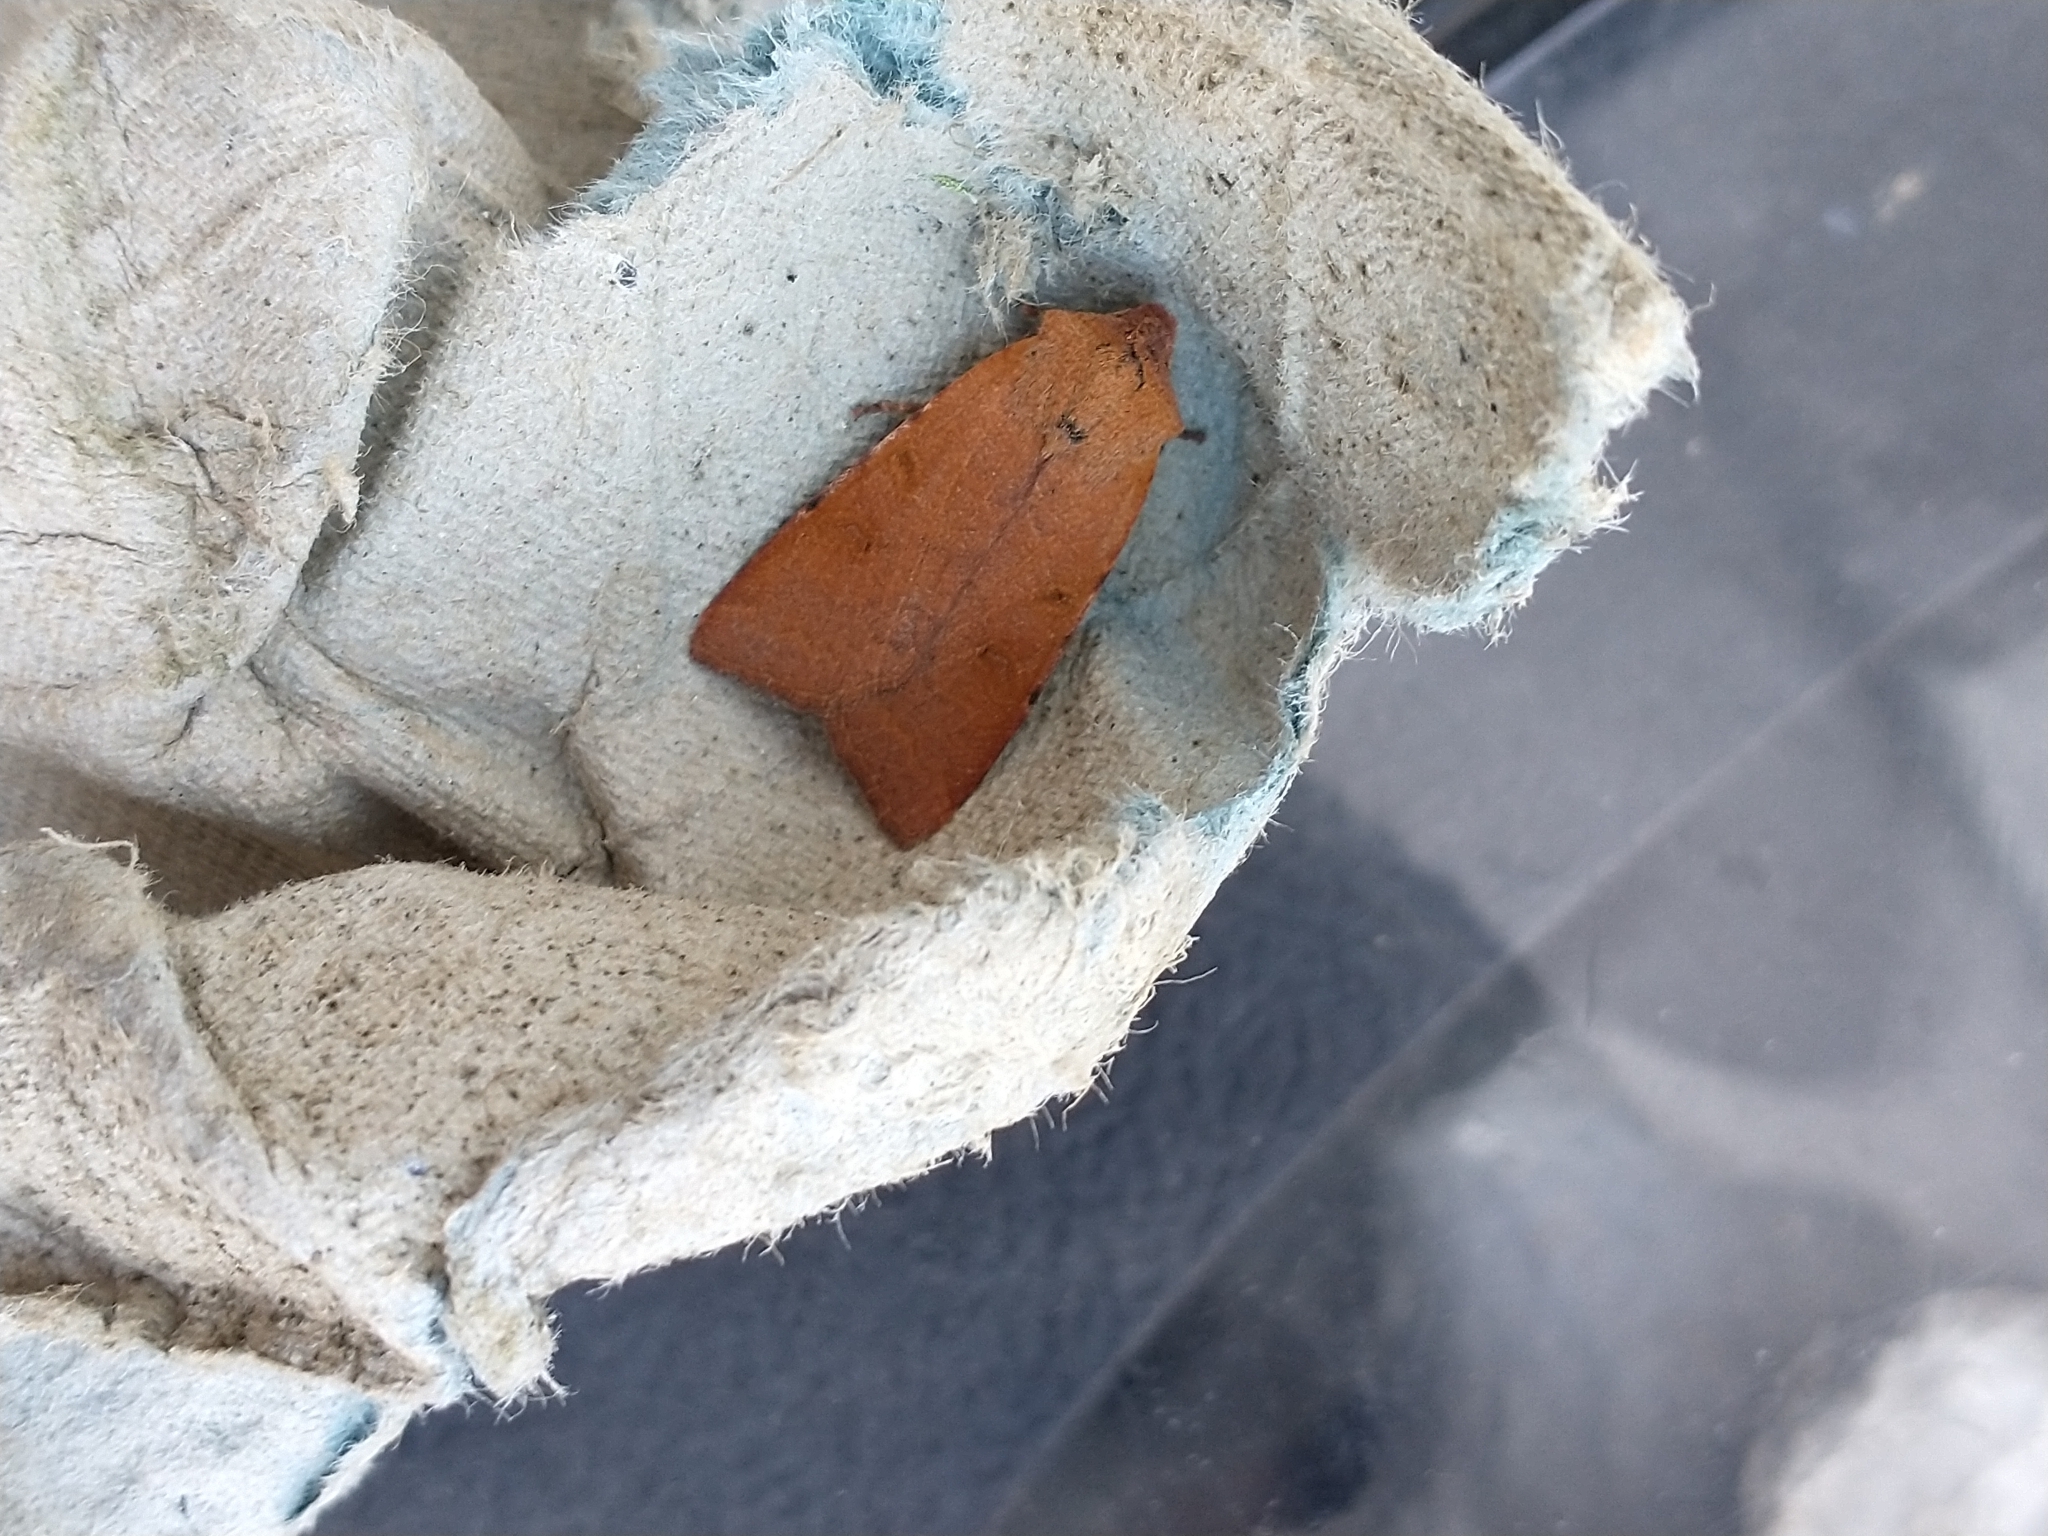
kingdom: Animalia
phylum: Arthropoda
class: Insecta
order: Lepidoptera
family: Noctuidae
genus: Agrochola
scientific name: Agrochola lychnidis
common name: Beaded chestnut
